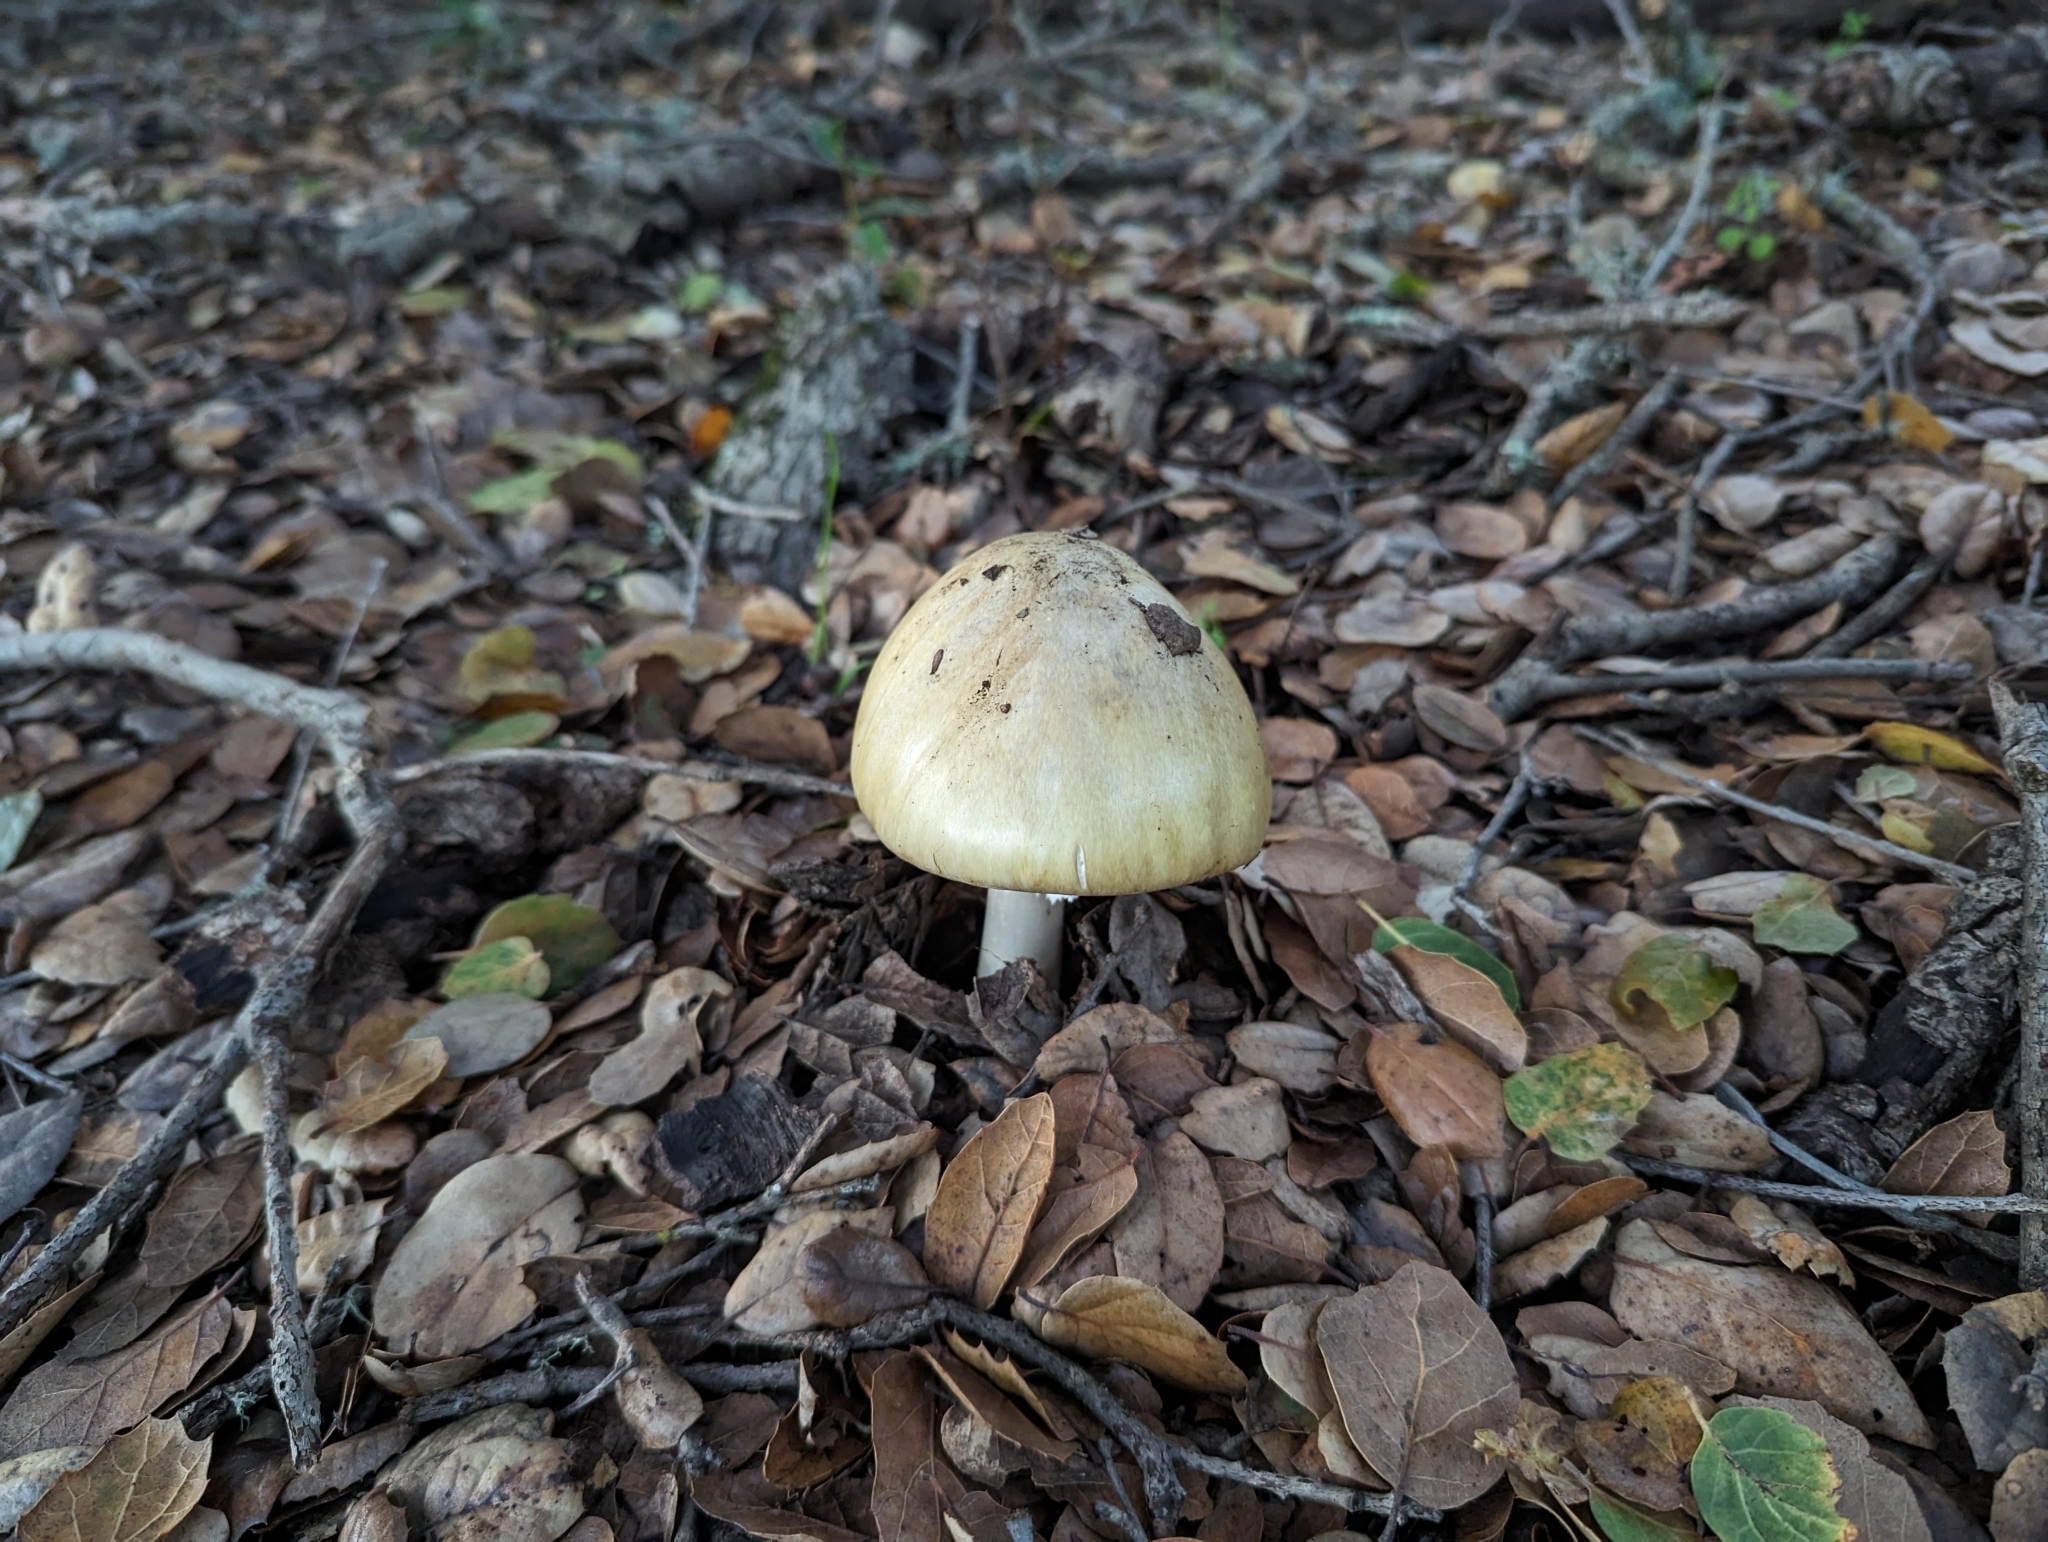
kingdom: Fungi
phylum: Basidiomycota
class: Agaricomycetes
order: Agaricales
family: Amanitaceae
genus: Amanita
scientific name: Amanita phalloides
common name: Death cap
